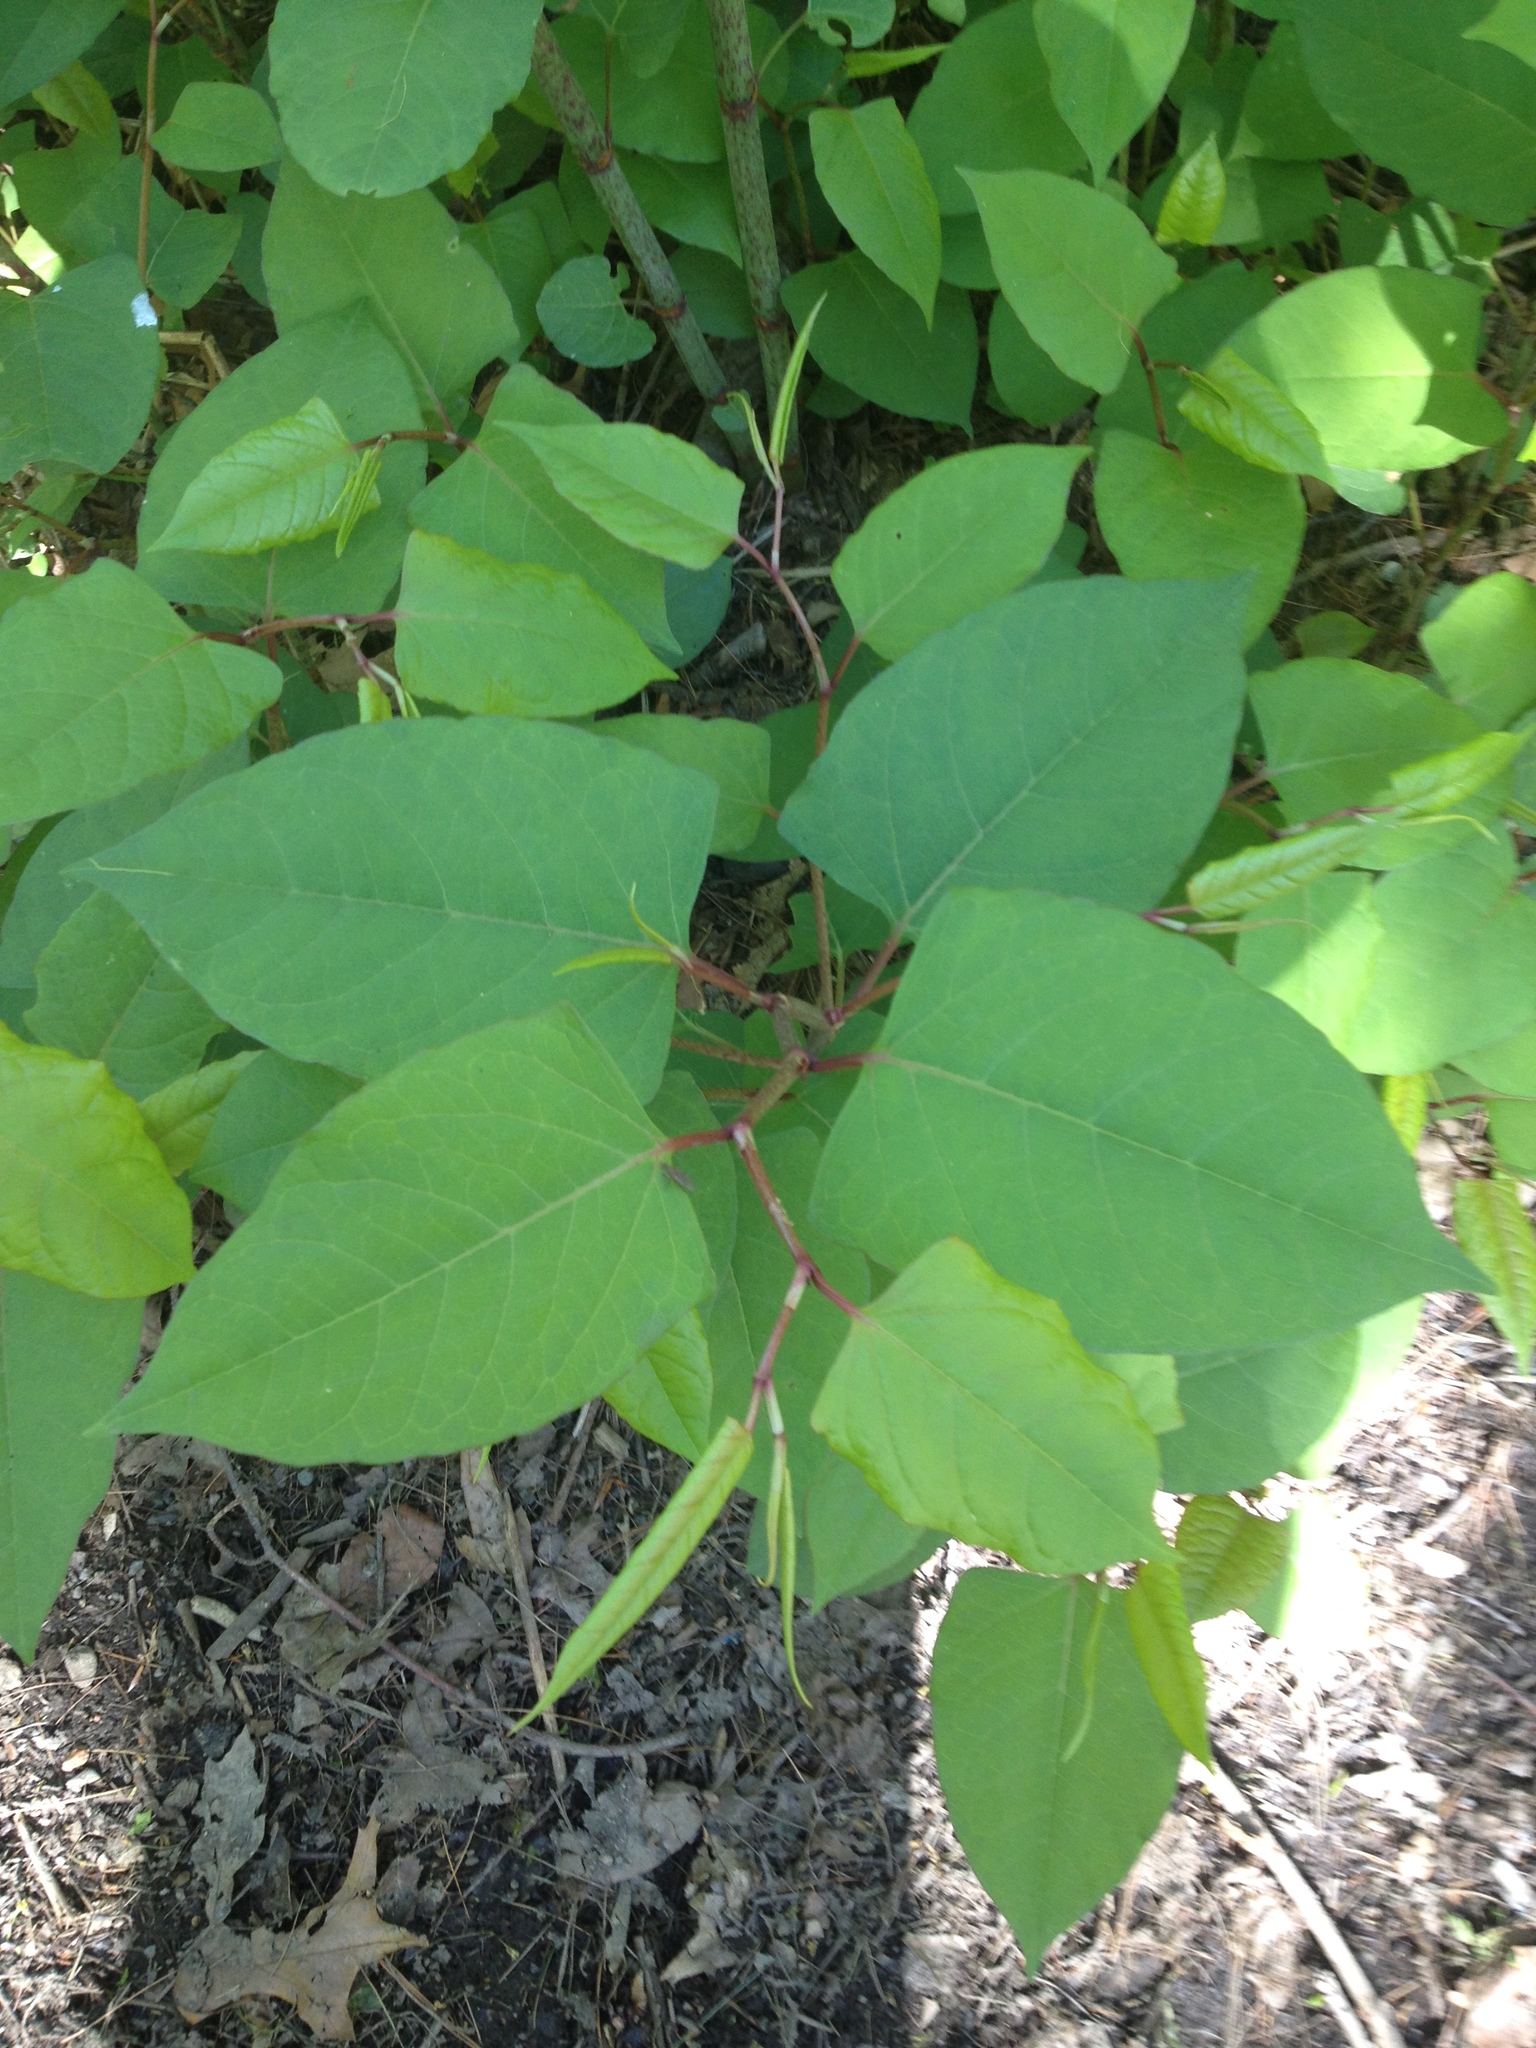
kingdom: Plantae
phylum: Tracheophyta
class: Magnoliopsida
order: Caryophyllales
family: Polygonaceae
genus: Reynoutria
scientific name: Reynoutria japonica
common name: Japanese knotweed
